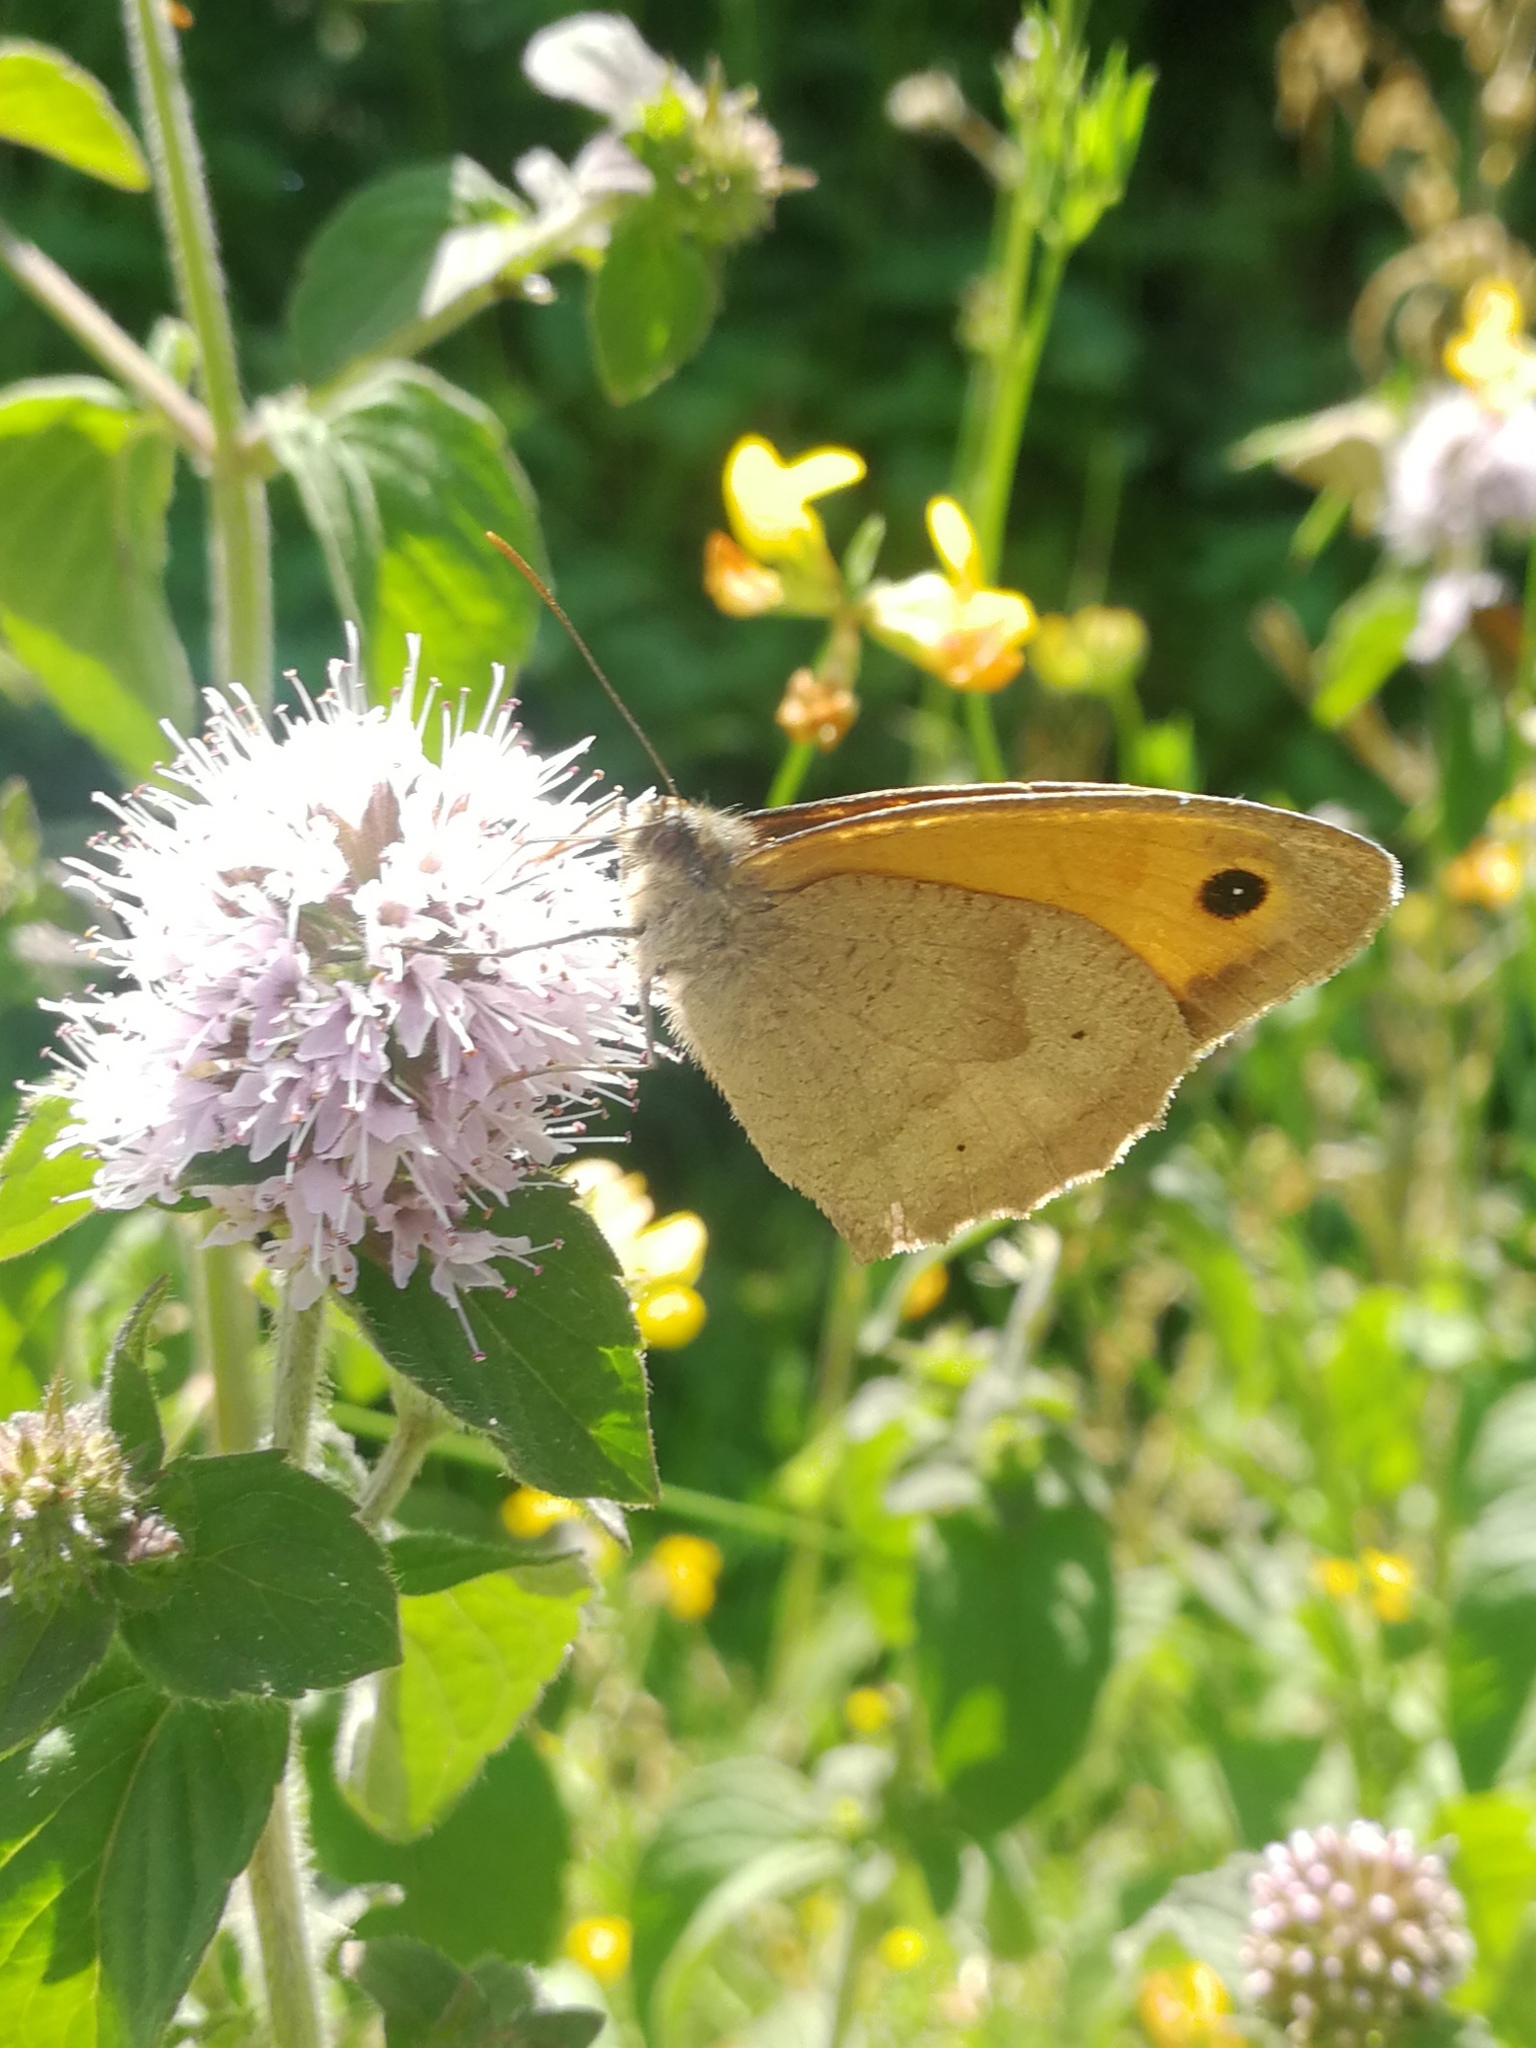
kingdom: Animalia
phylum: Arthropoda
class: Insecta
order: Lepidoptera
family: Nymphalidae
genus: Maniola
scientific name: Maniola jurtina
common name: Meadow brown
